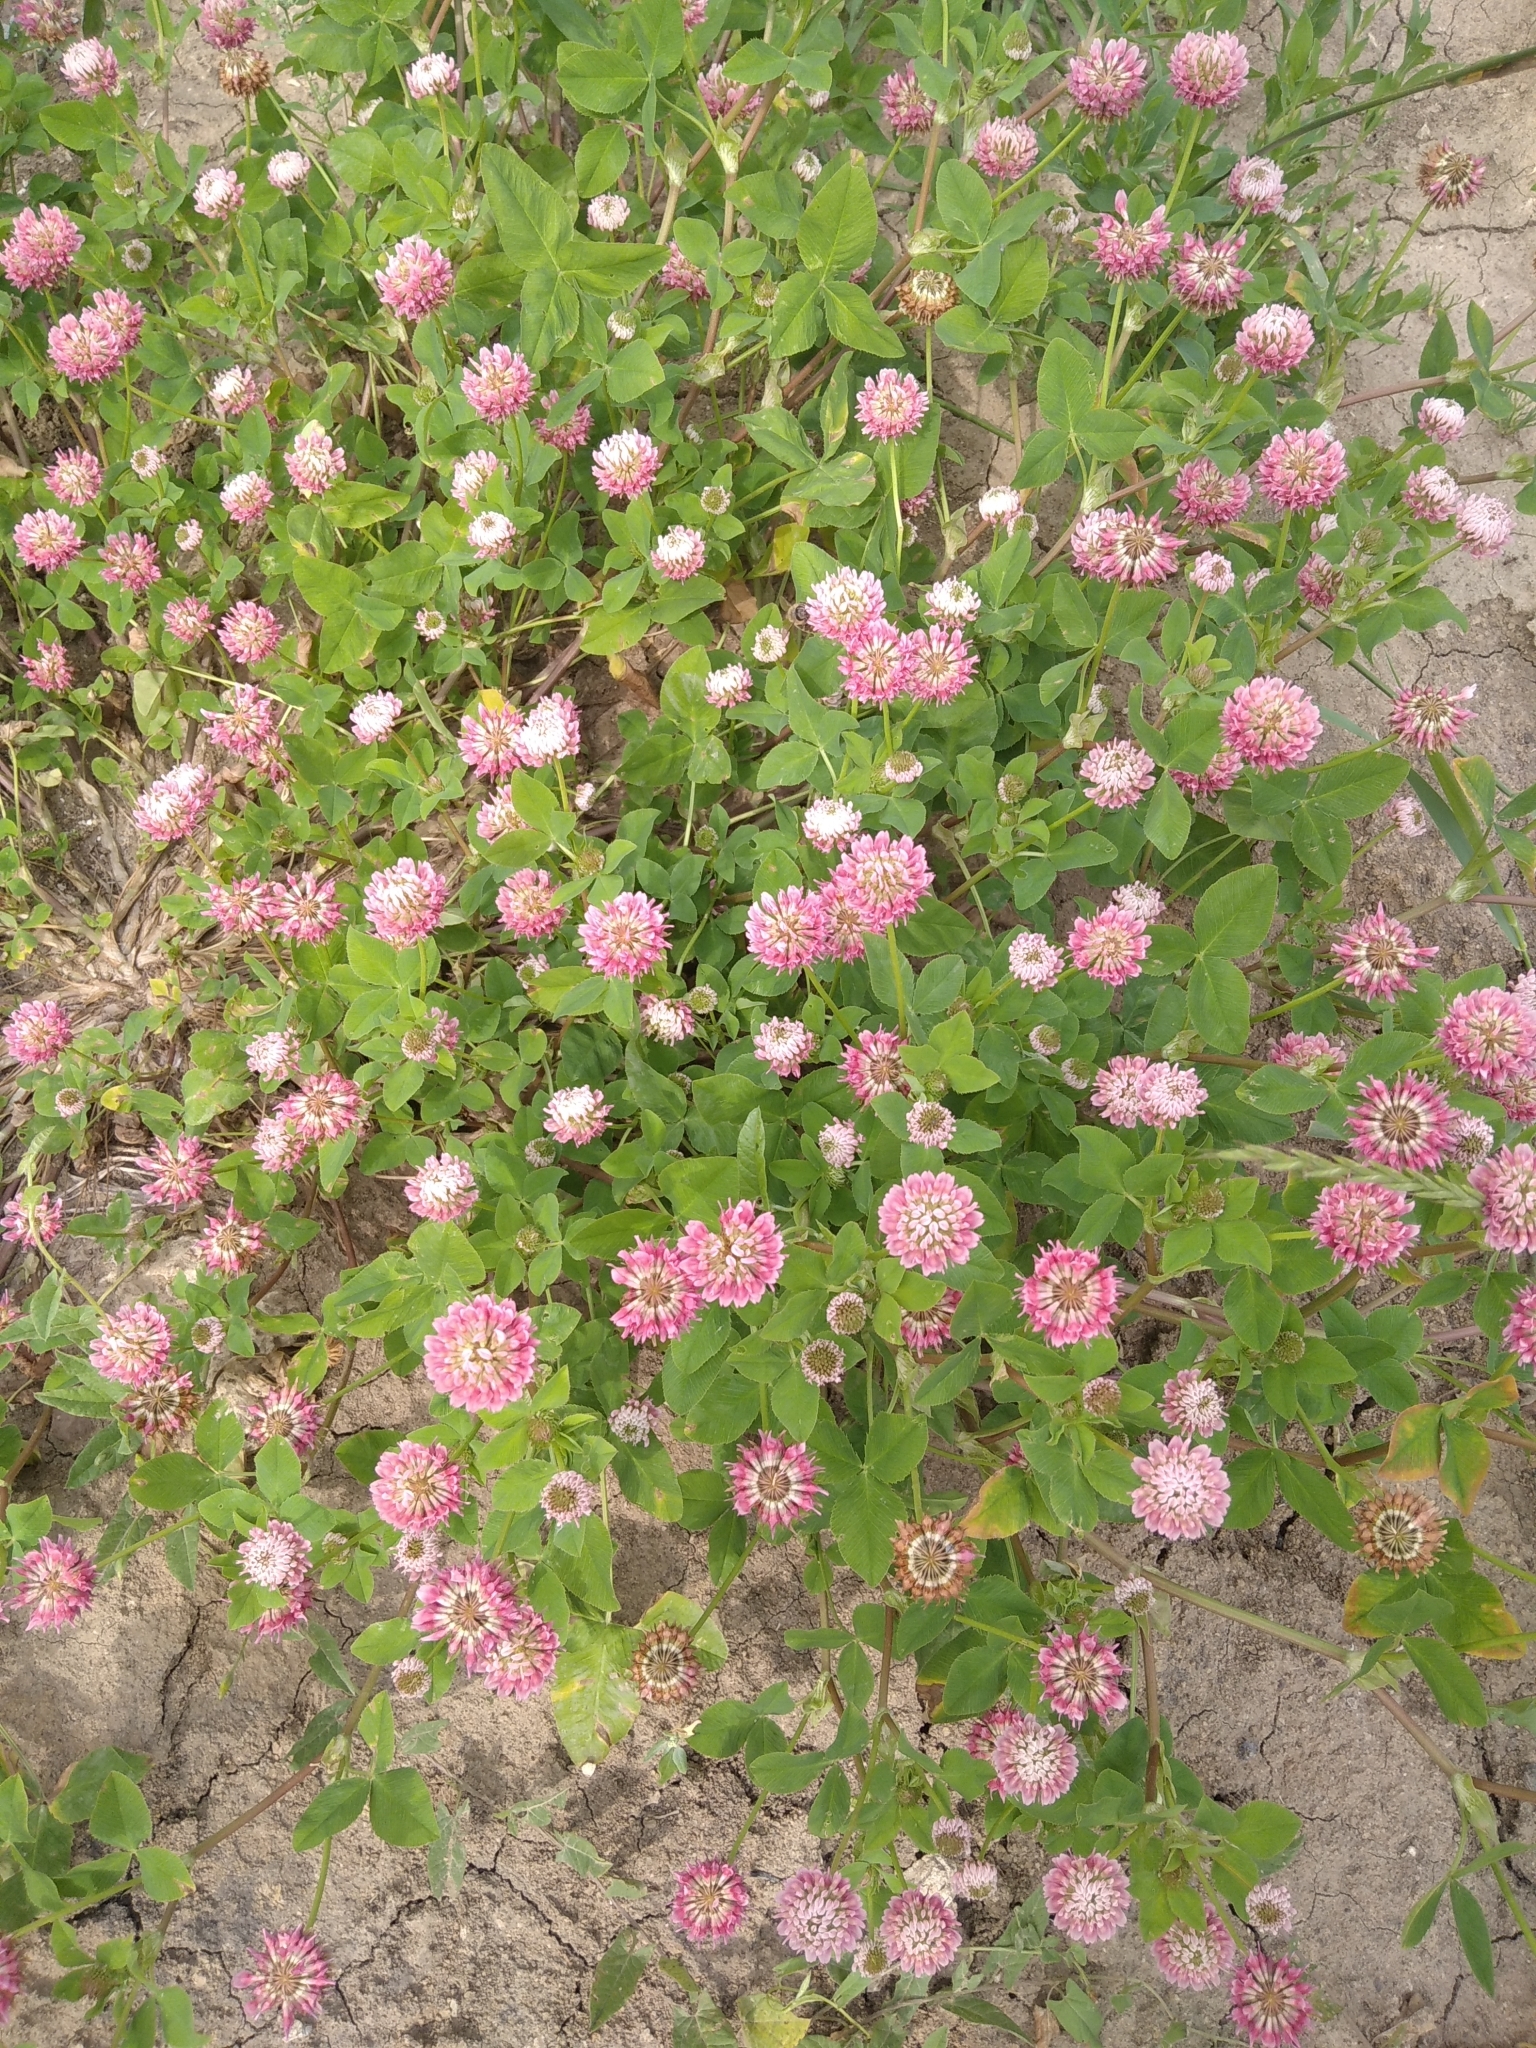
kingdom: Plantae
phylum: Tracheophyta
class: Magnoliopsida
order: Fabales
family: Fabaceae
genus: Trifolium
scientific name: Trifolium hybridum
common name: Alsike clover
